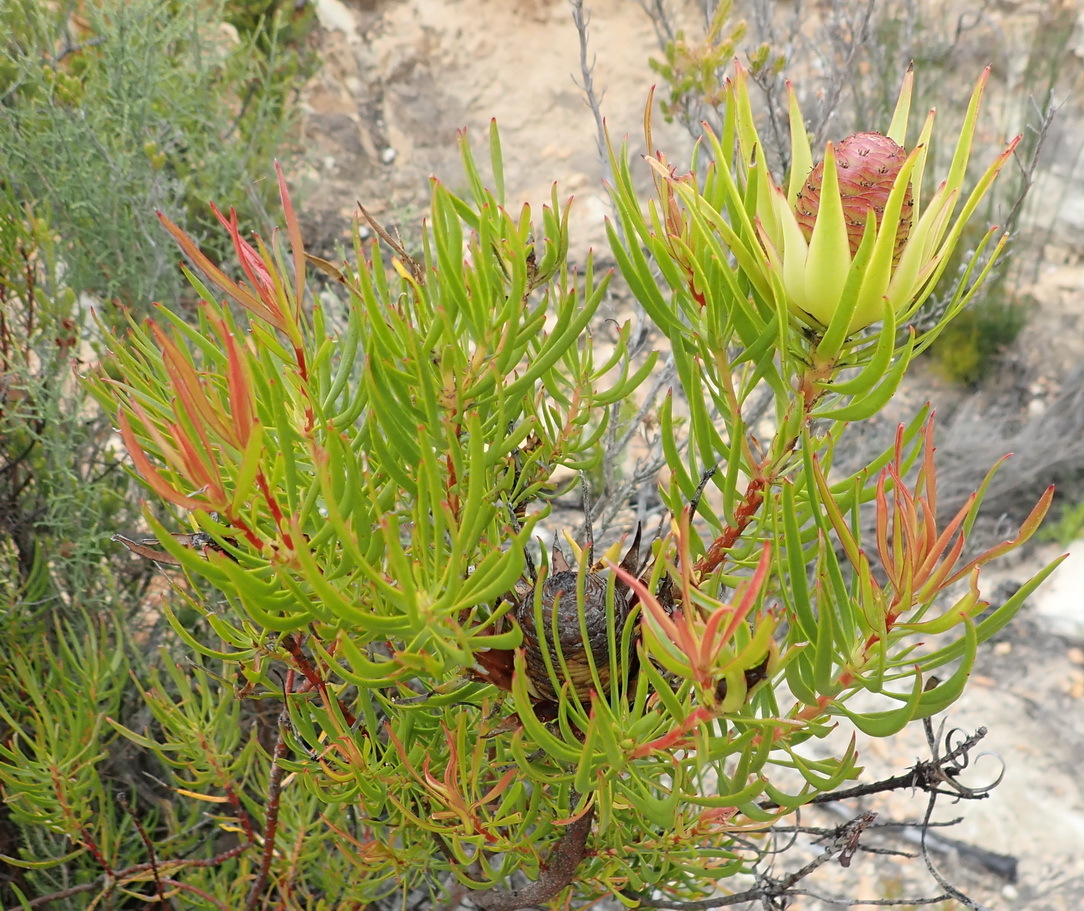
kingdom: Plantae
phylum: Tracheophyta
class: Magnoliopsida
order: Proteales
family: Proteaceae
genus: Leucadendron
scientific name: Leucadendron spissifolium
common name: Spear-leaf conebush
